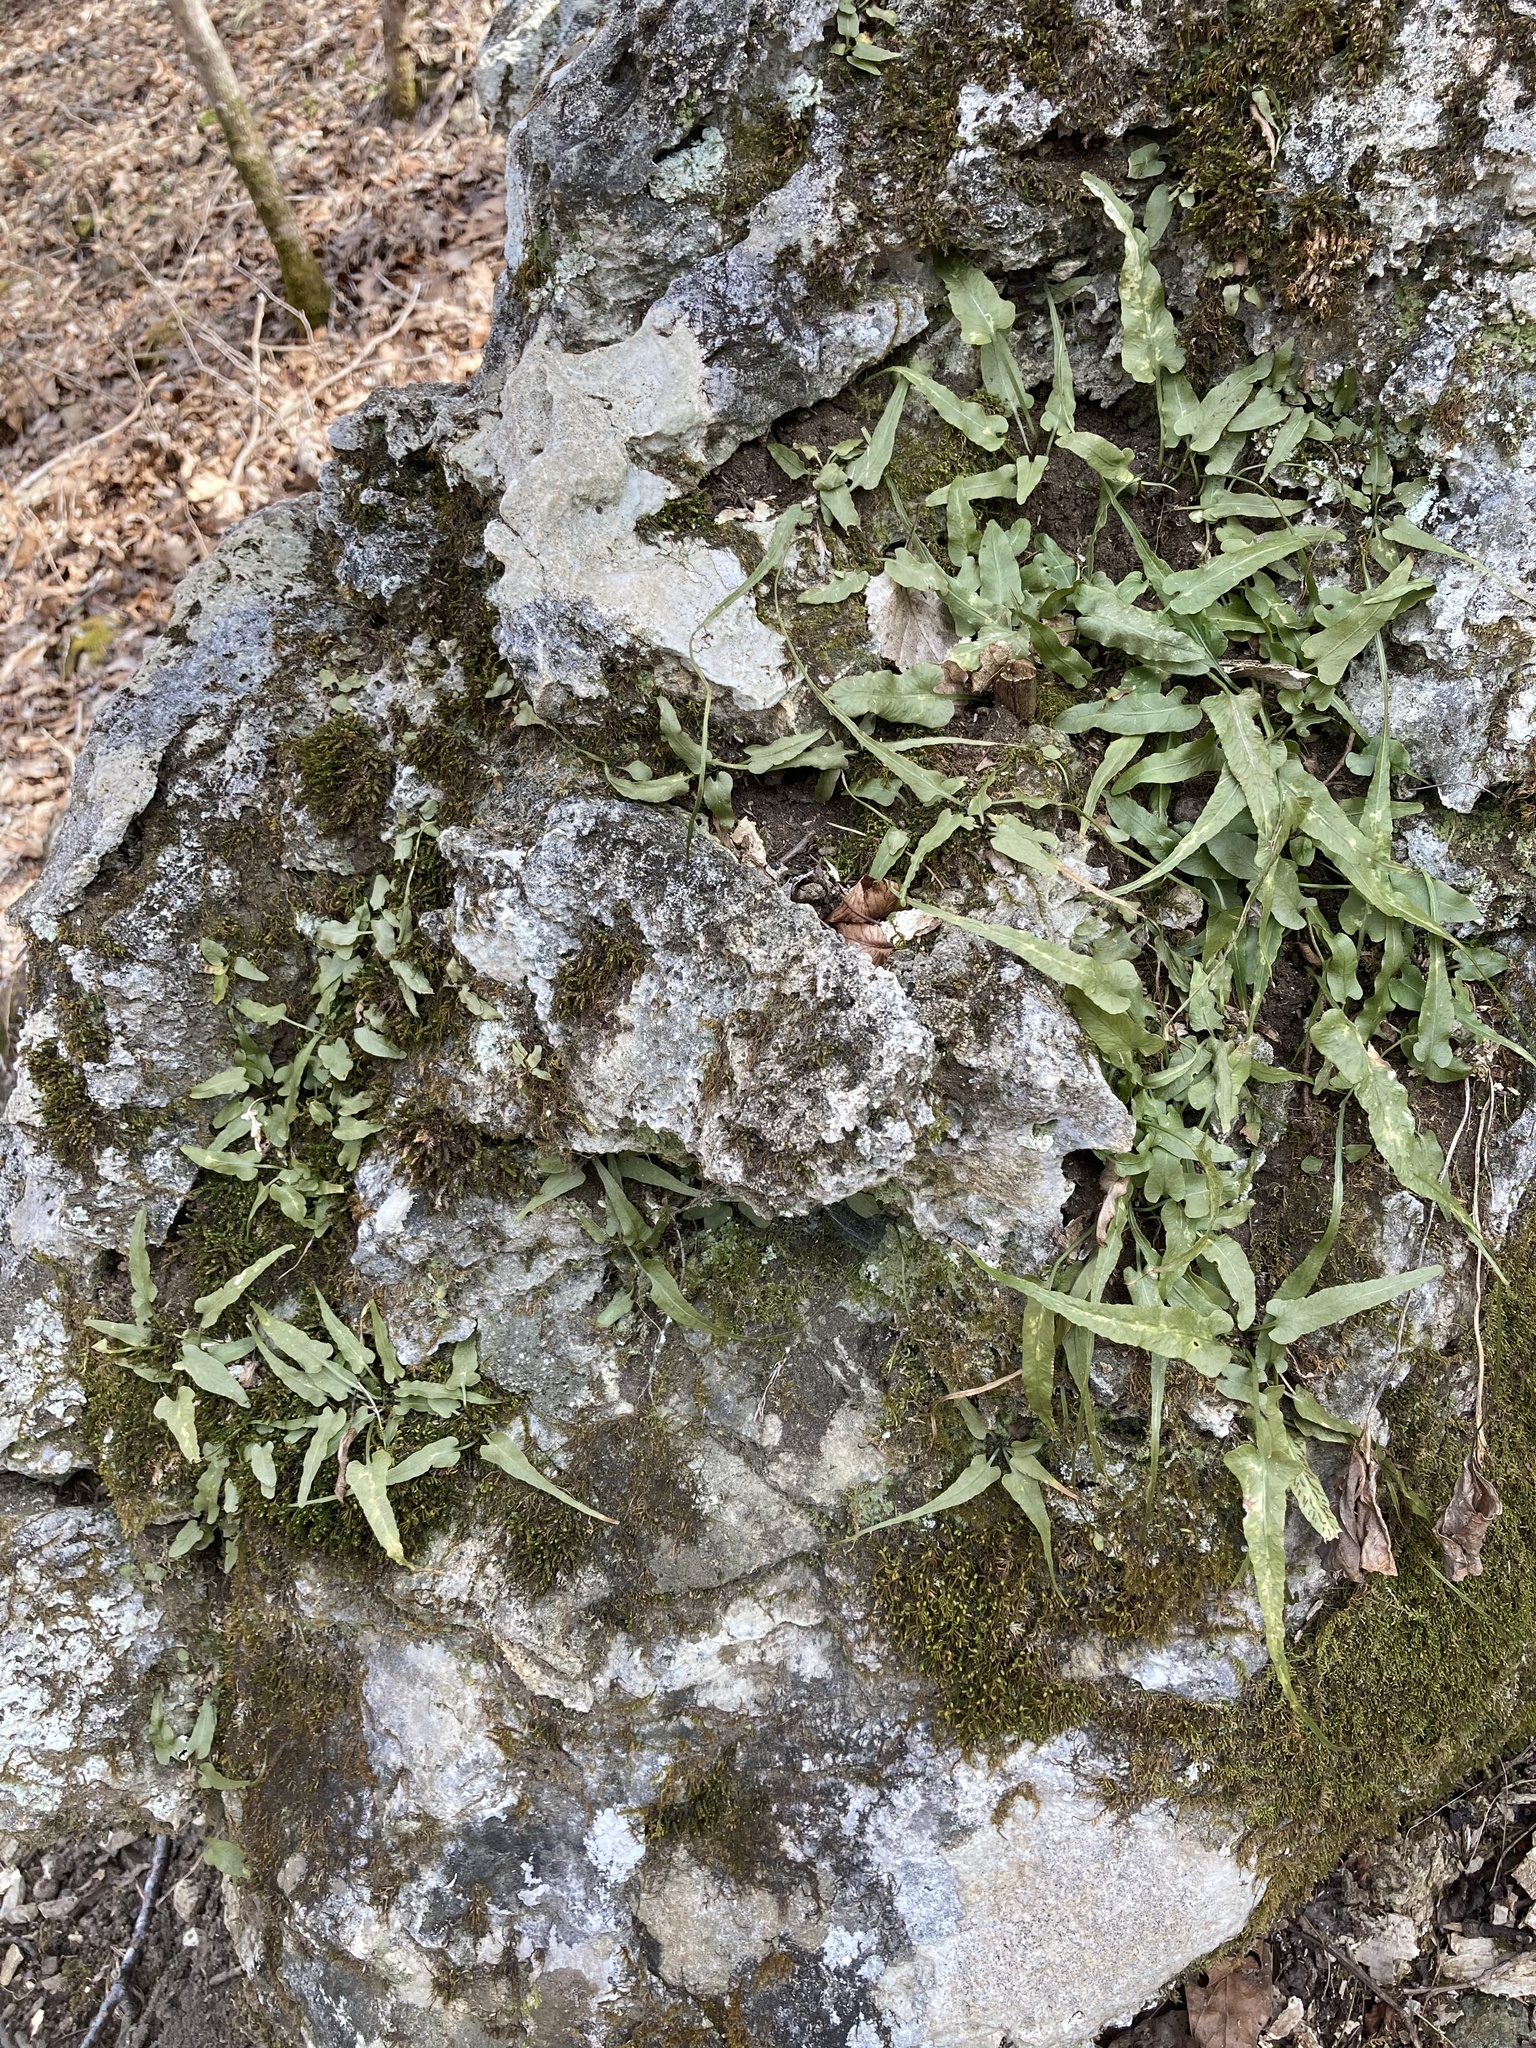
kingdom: Plantae
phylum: Tracheophyta
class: Polypodiopsida
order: Polypodiales
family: Aspleniaceae
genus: Asplenium
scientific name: Asplenium rhizophyllum
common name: Walking fern
